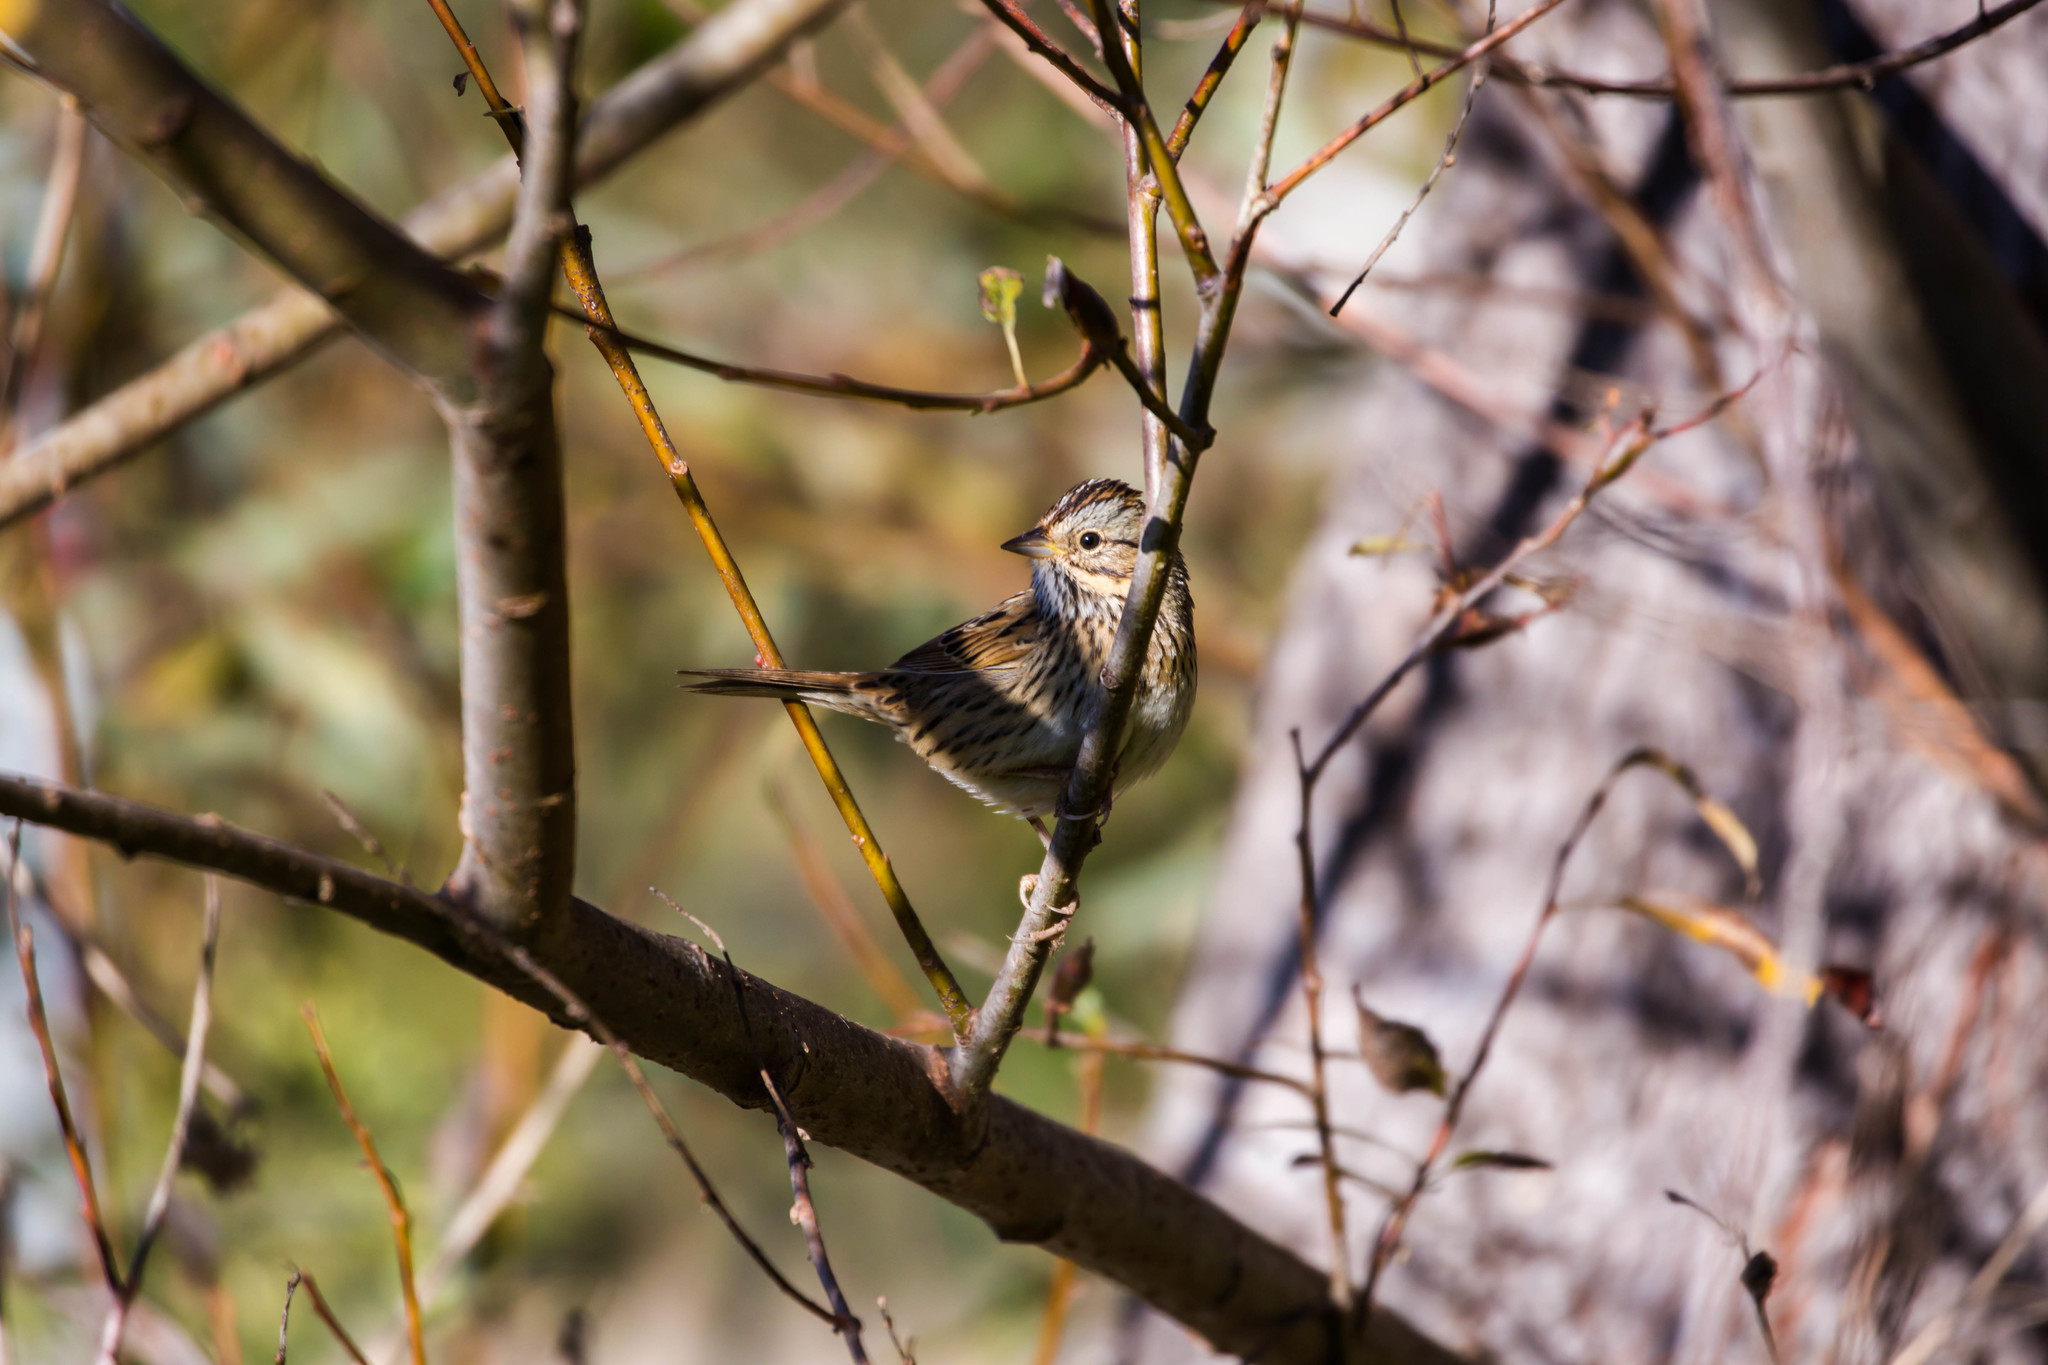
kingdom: Animalia
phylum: Chordata
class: Aves
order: Passeriformes
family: Passerellidae
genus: Melospiza
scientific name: Melospiza lincolnii
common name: Lincoln's sparrow
